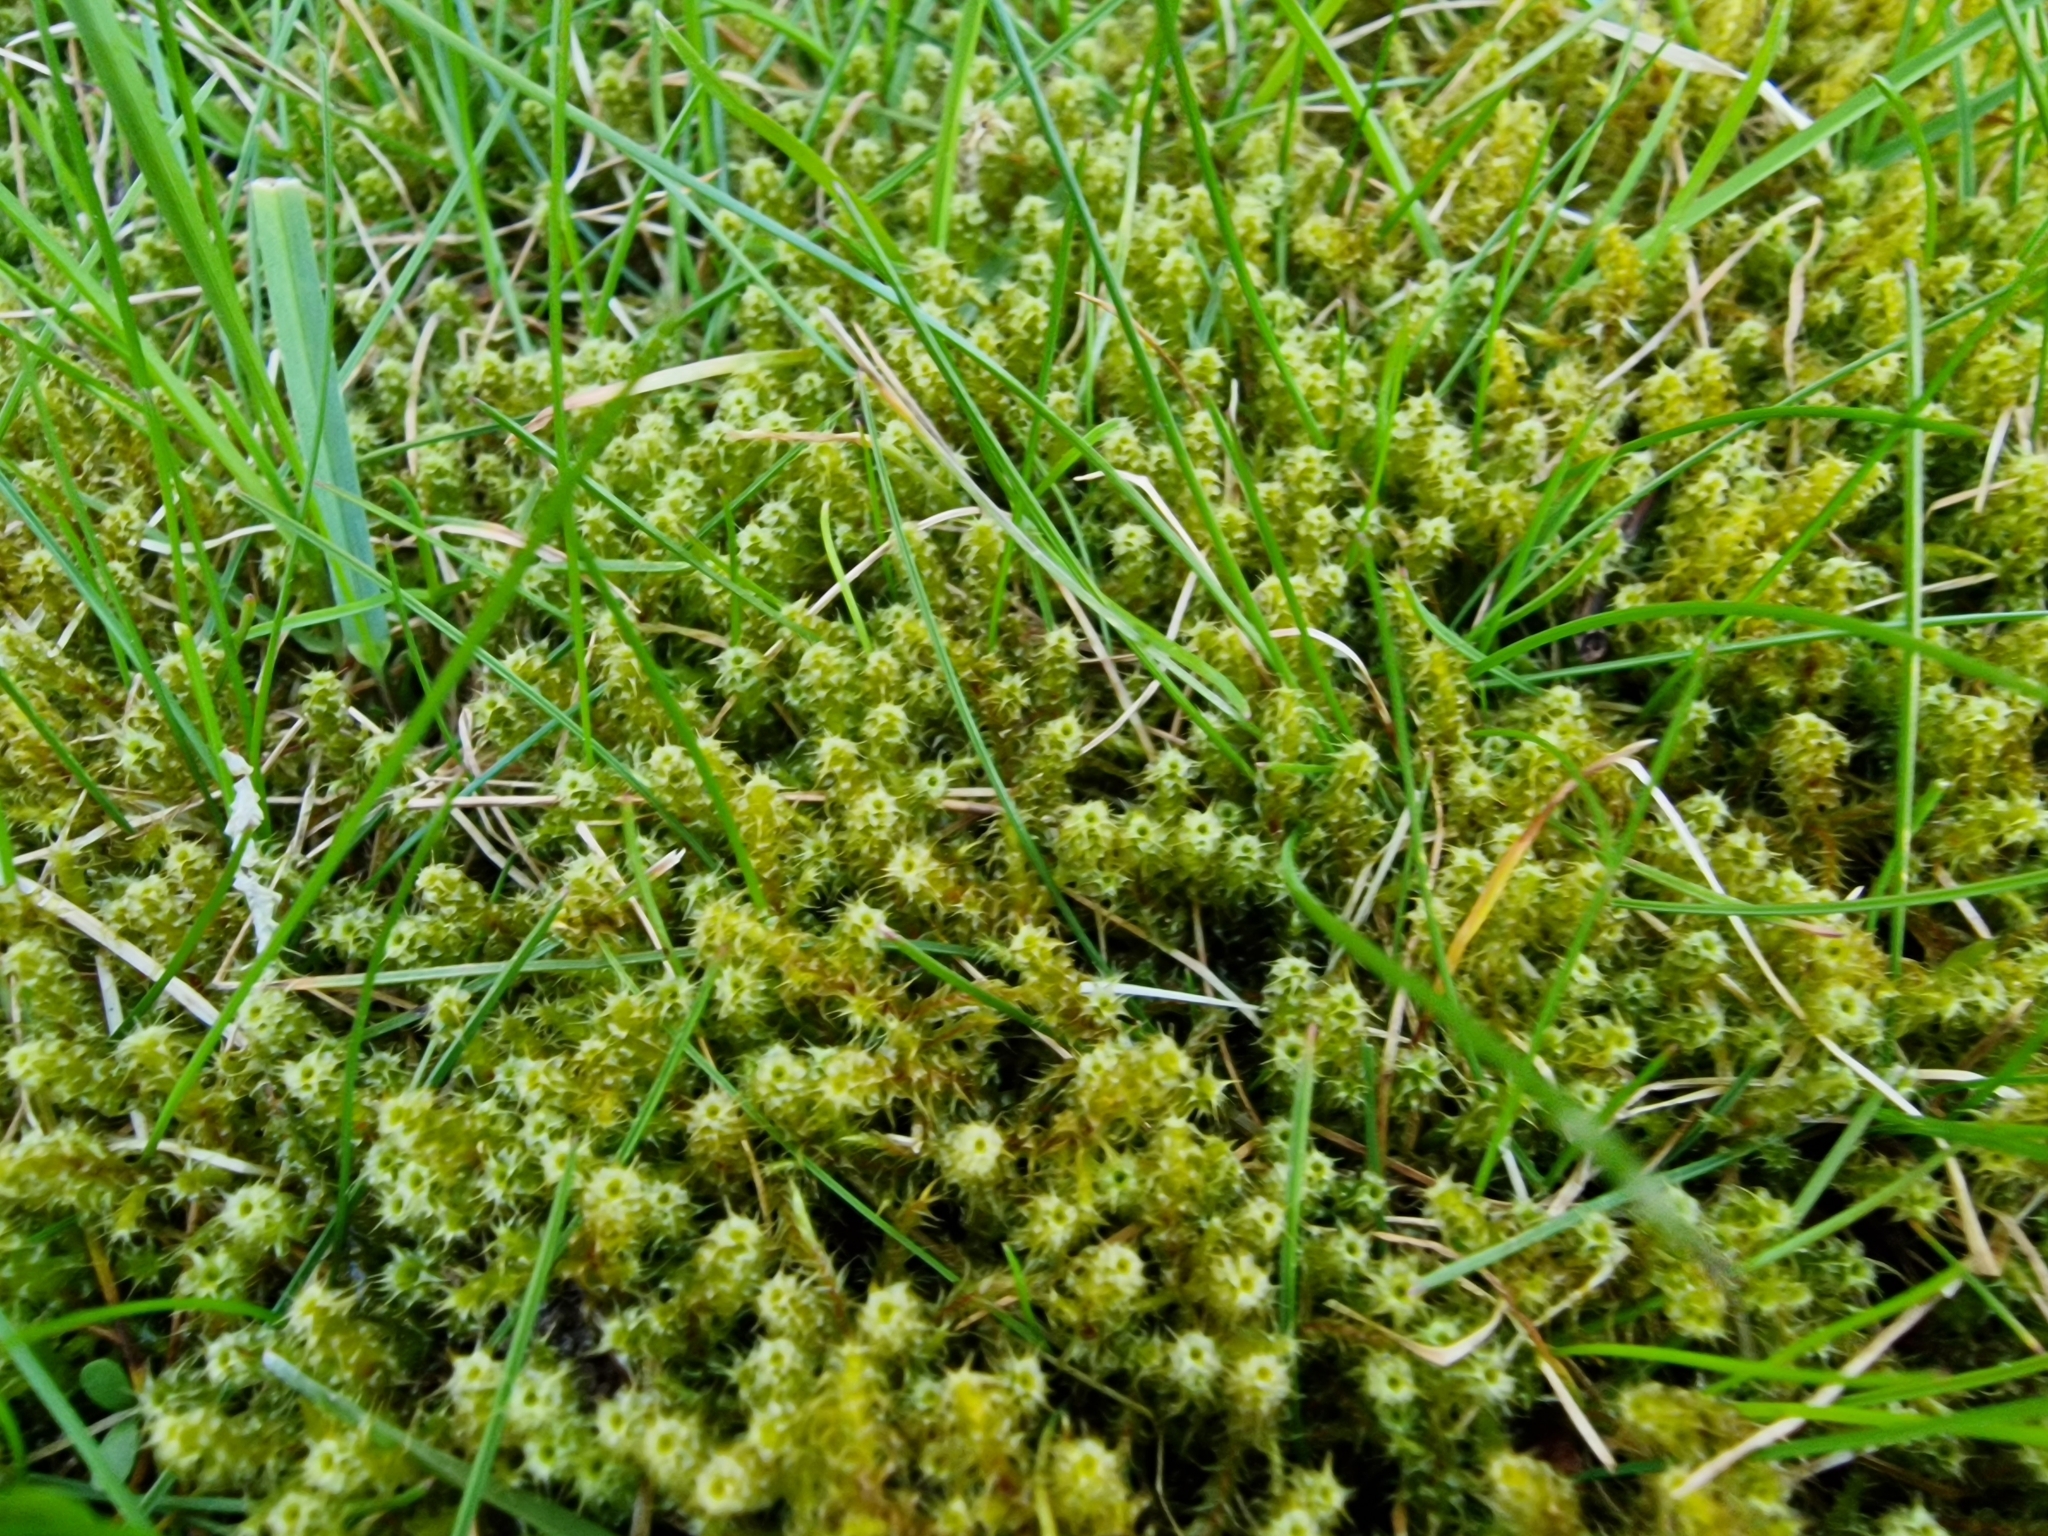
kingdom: Plantae
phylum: Bryophyta
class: Bryopsida
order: Hypnales
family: Hylocomiaceae
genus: Rhytidiadelphus
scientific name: Rhytidiadelphus squarrosus
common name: Springy turf-moss
